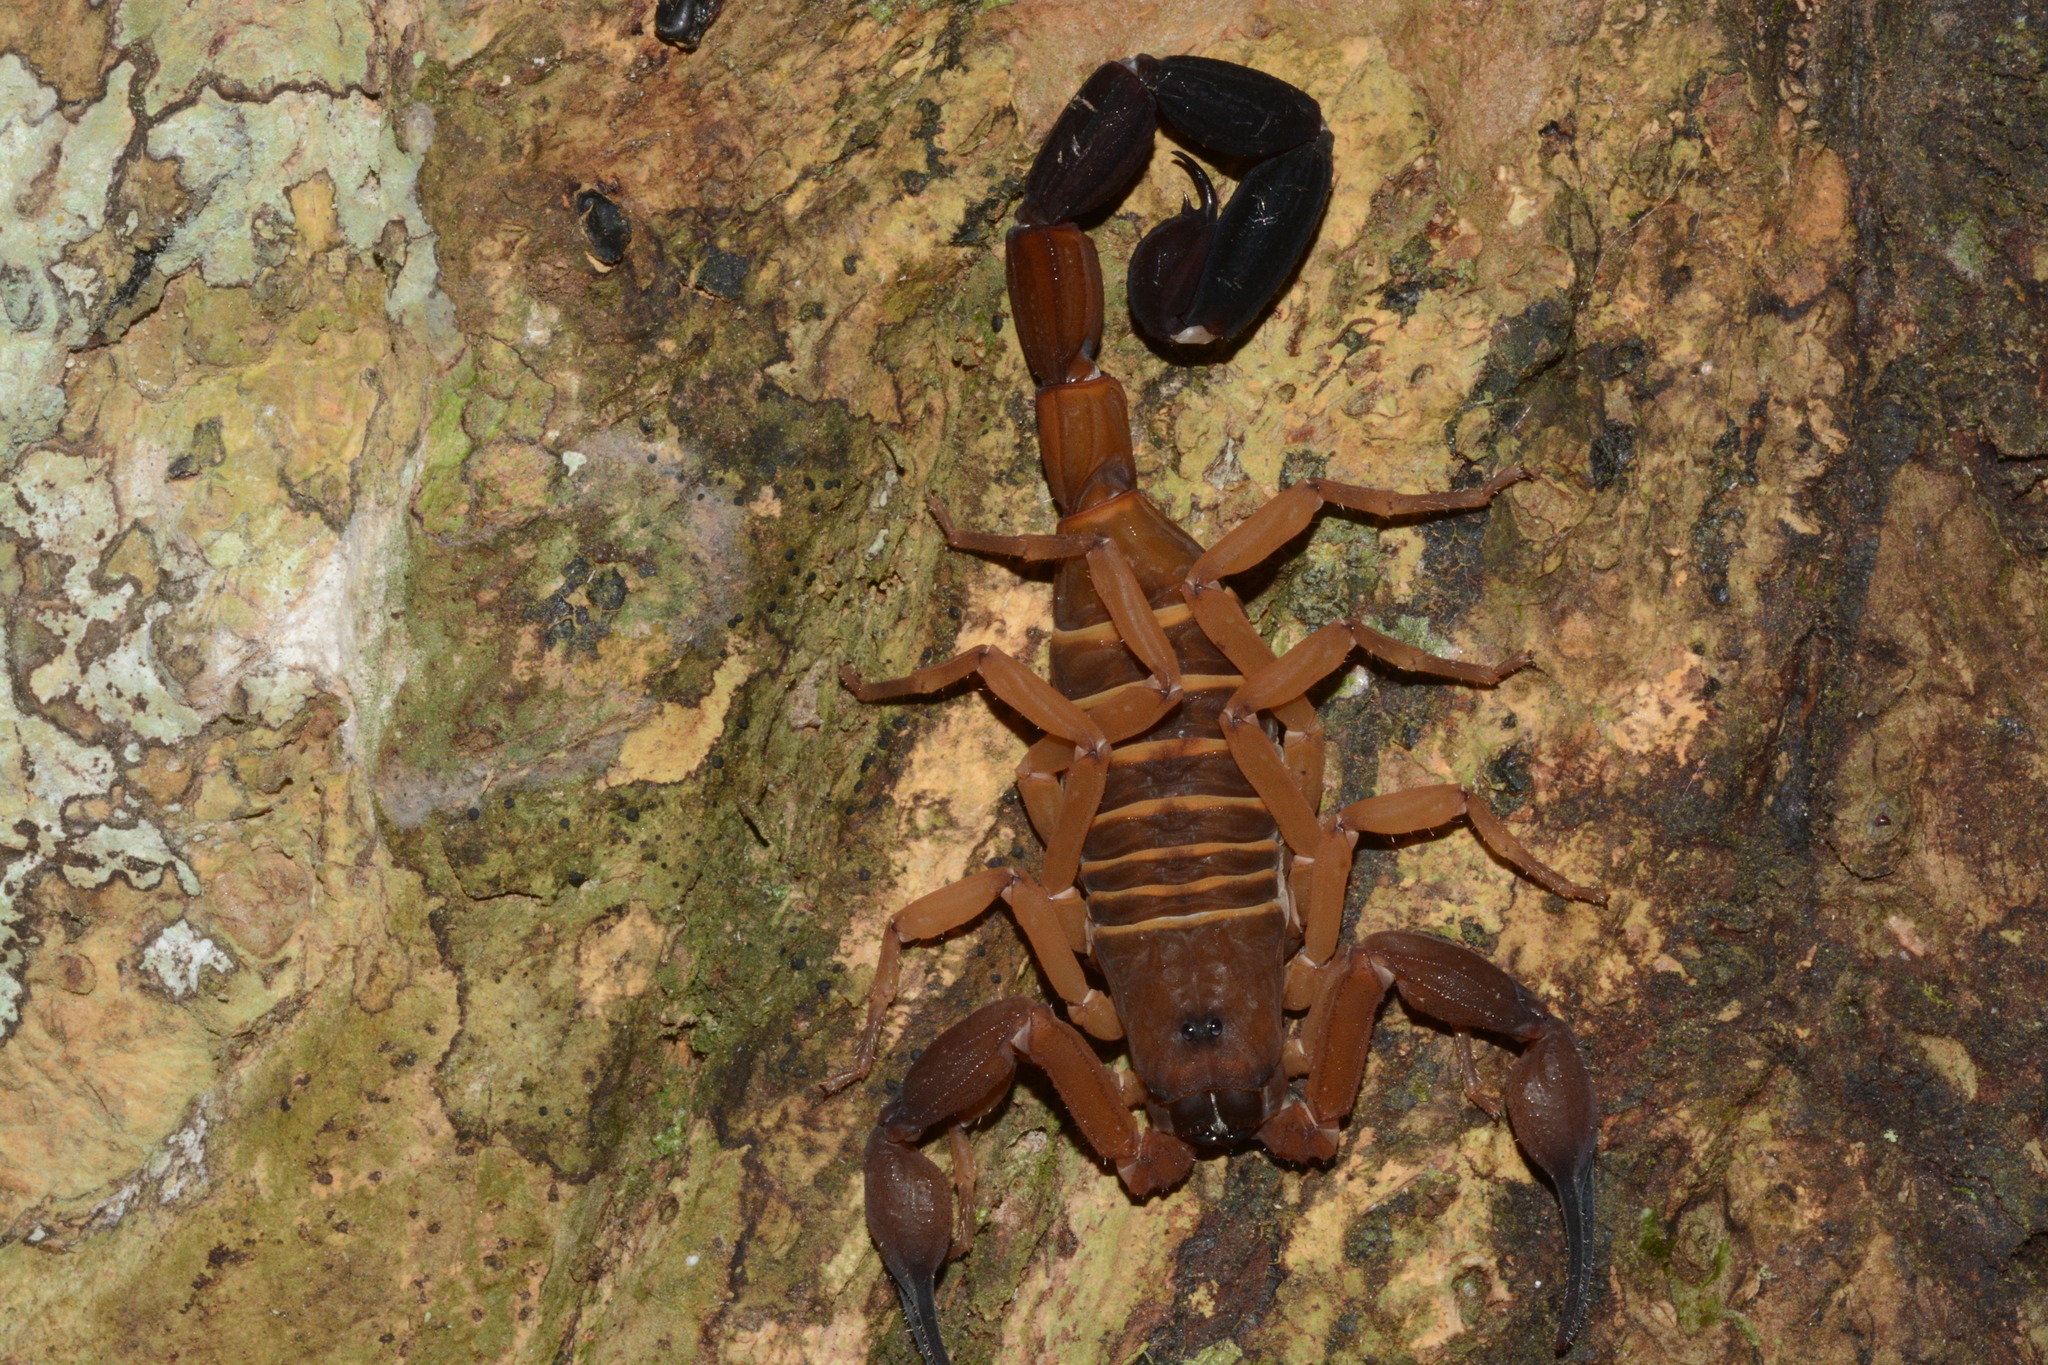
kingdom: Animalia
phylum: Arthropoda
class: Arachnida
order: Scorpiones
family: Buthidae
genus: Babycurus
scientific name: Babycurus gigas
